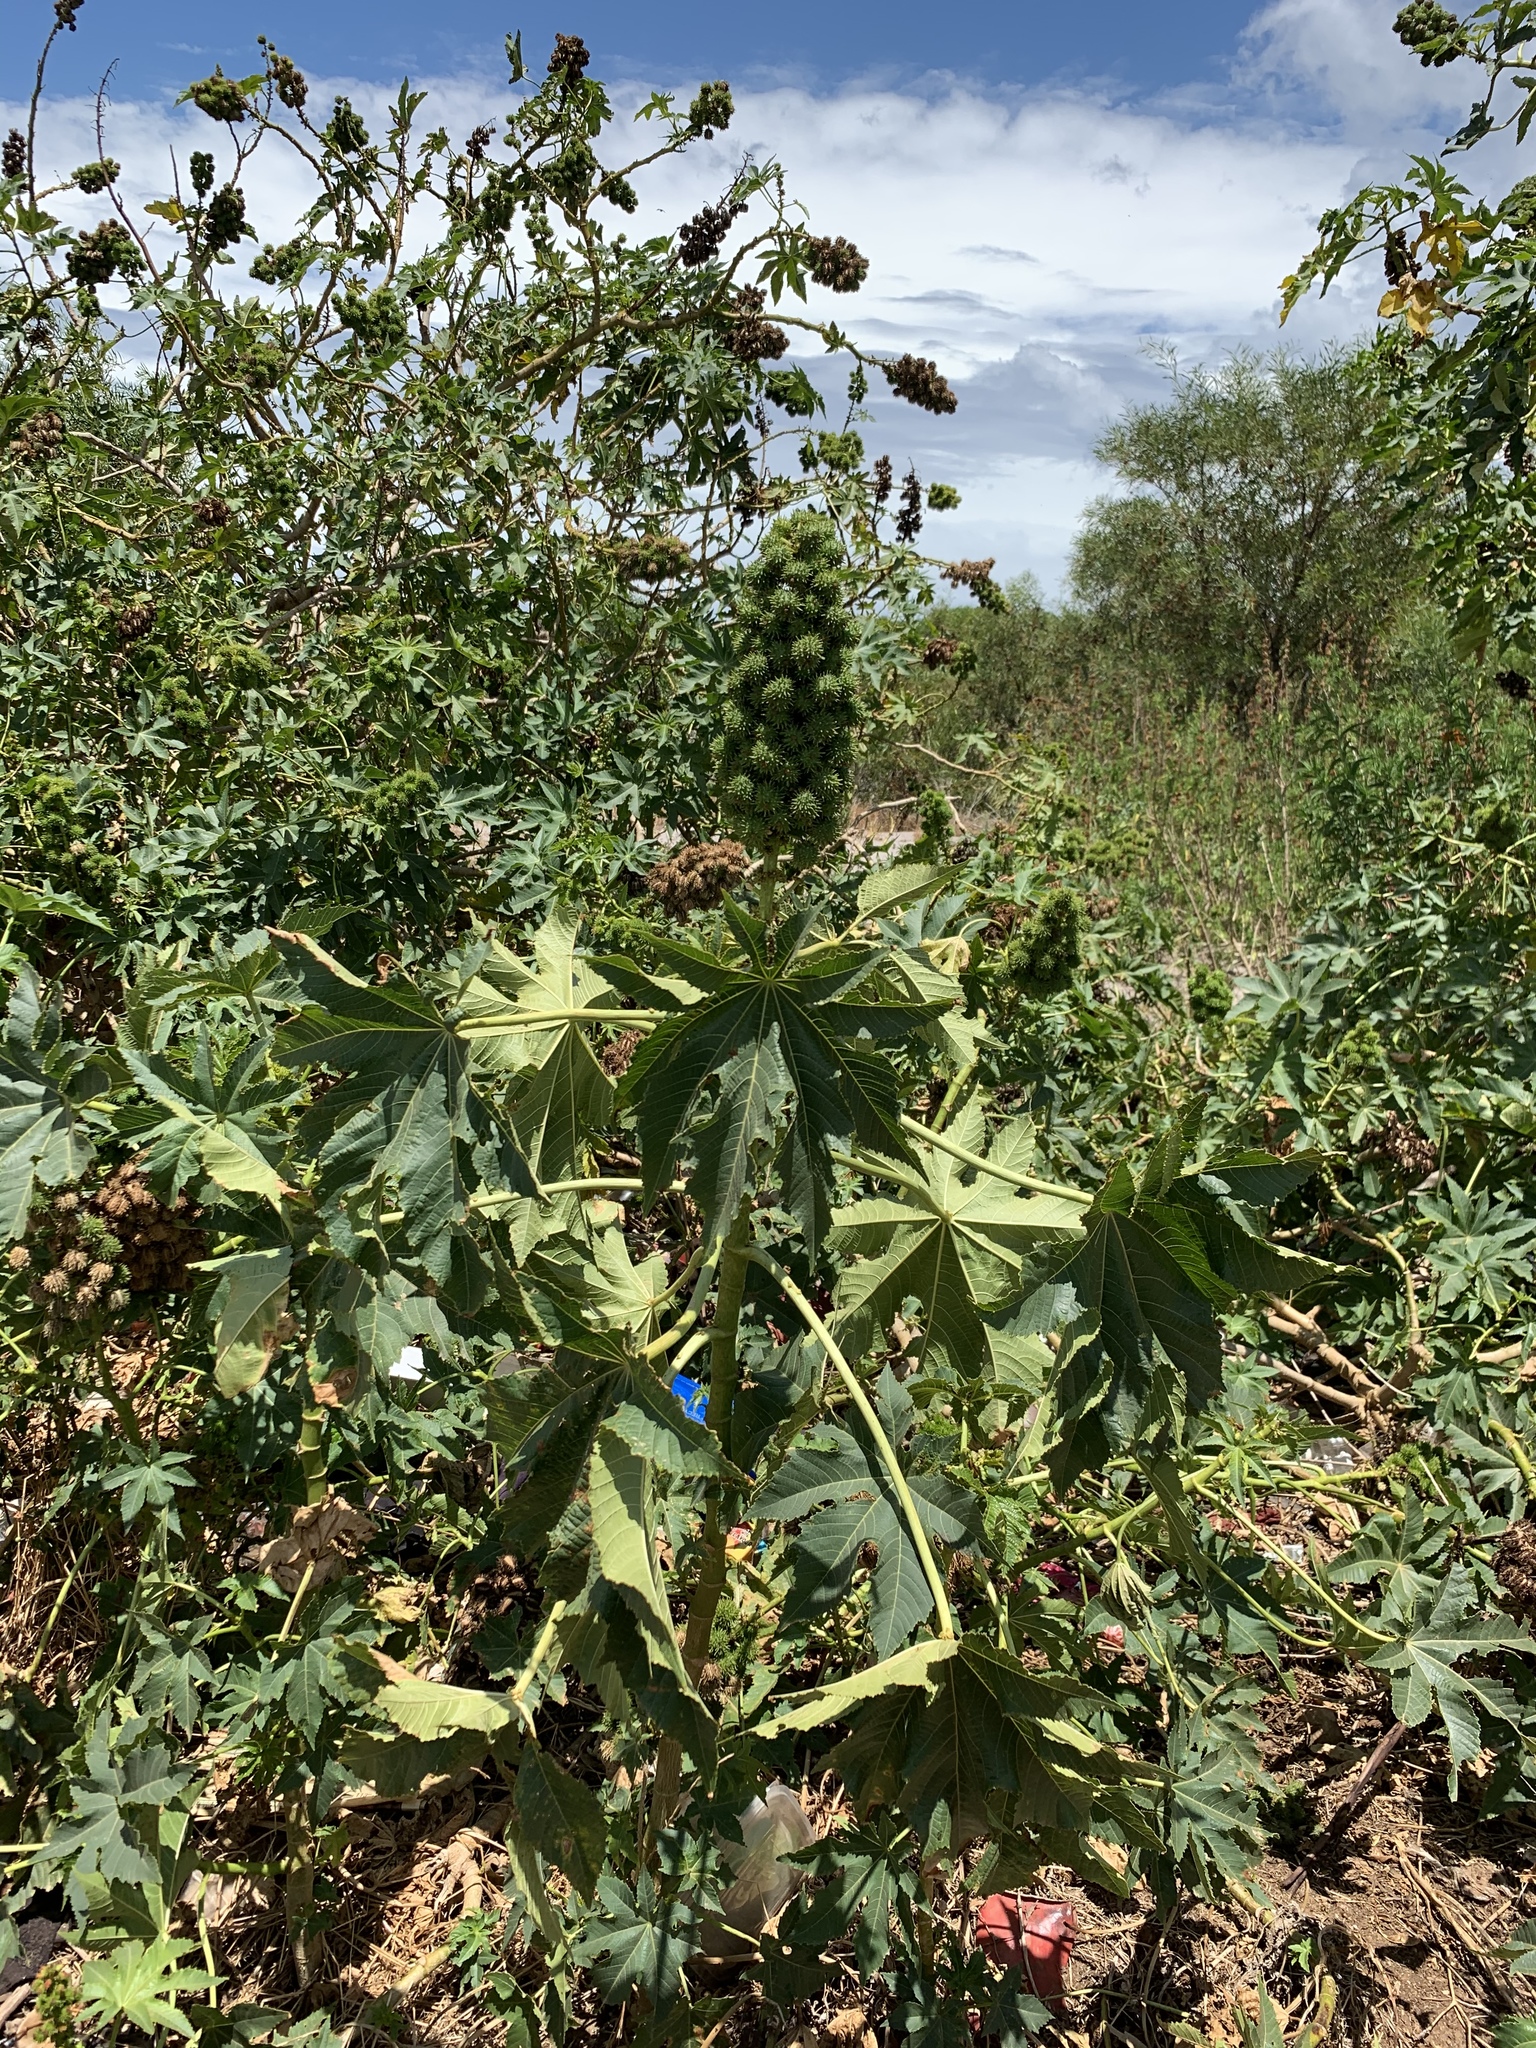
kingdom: Plantae
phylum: Tracheophyta
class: Magnoliopsida
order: Malpighiales
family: Euphorbiaceae
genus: Ricinus
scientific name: Ricinus communis
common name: Castor-oil-plant
